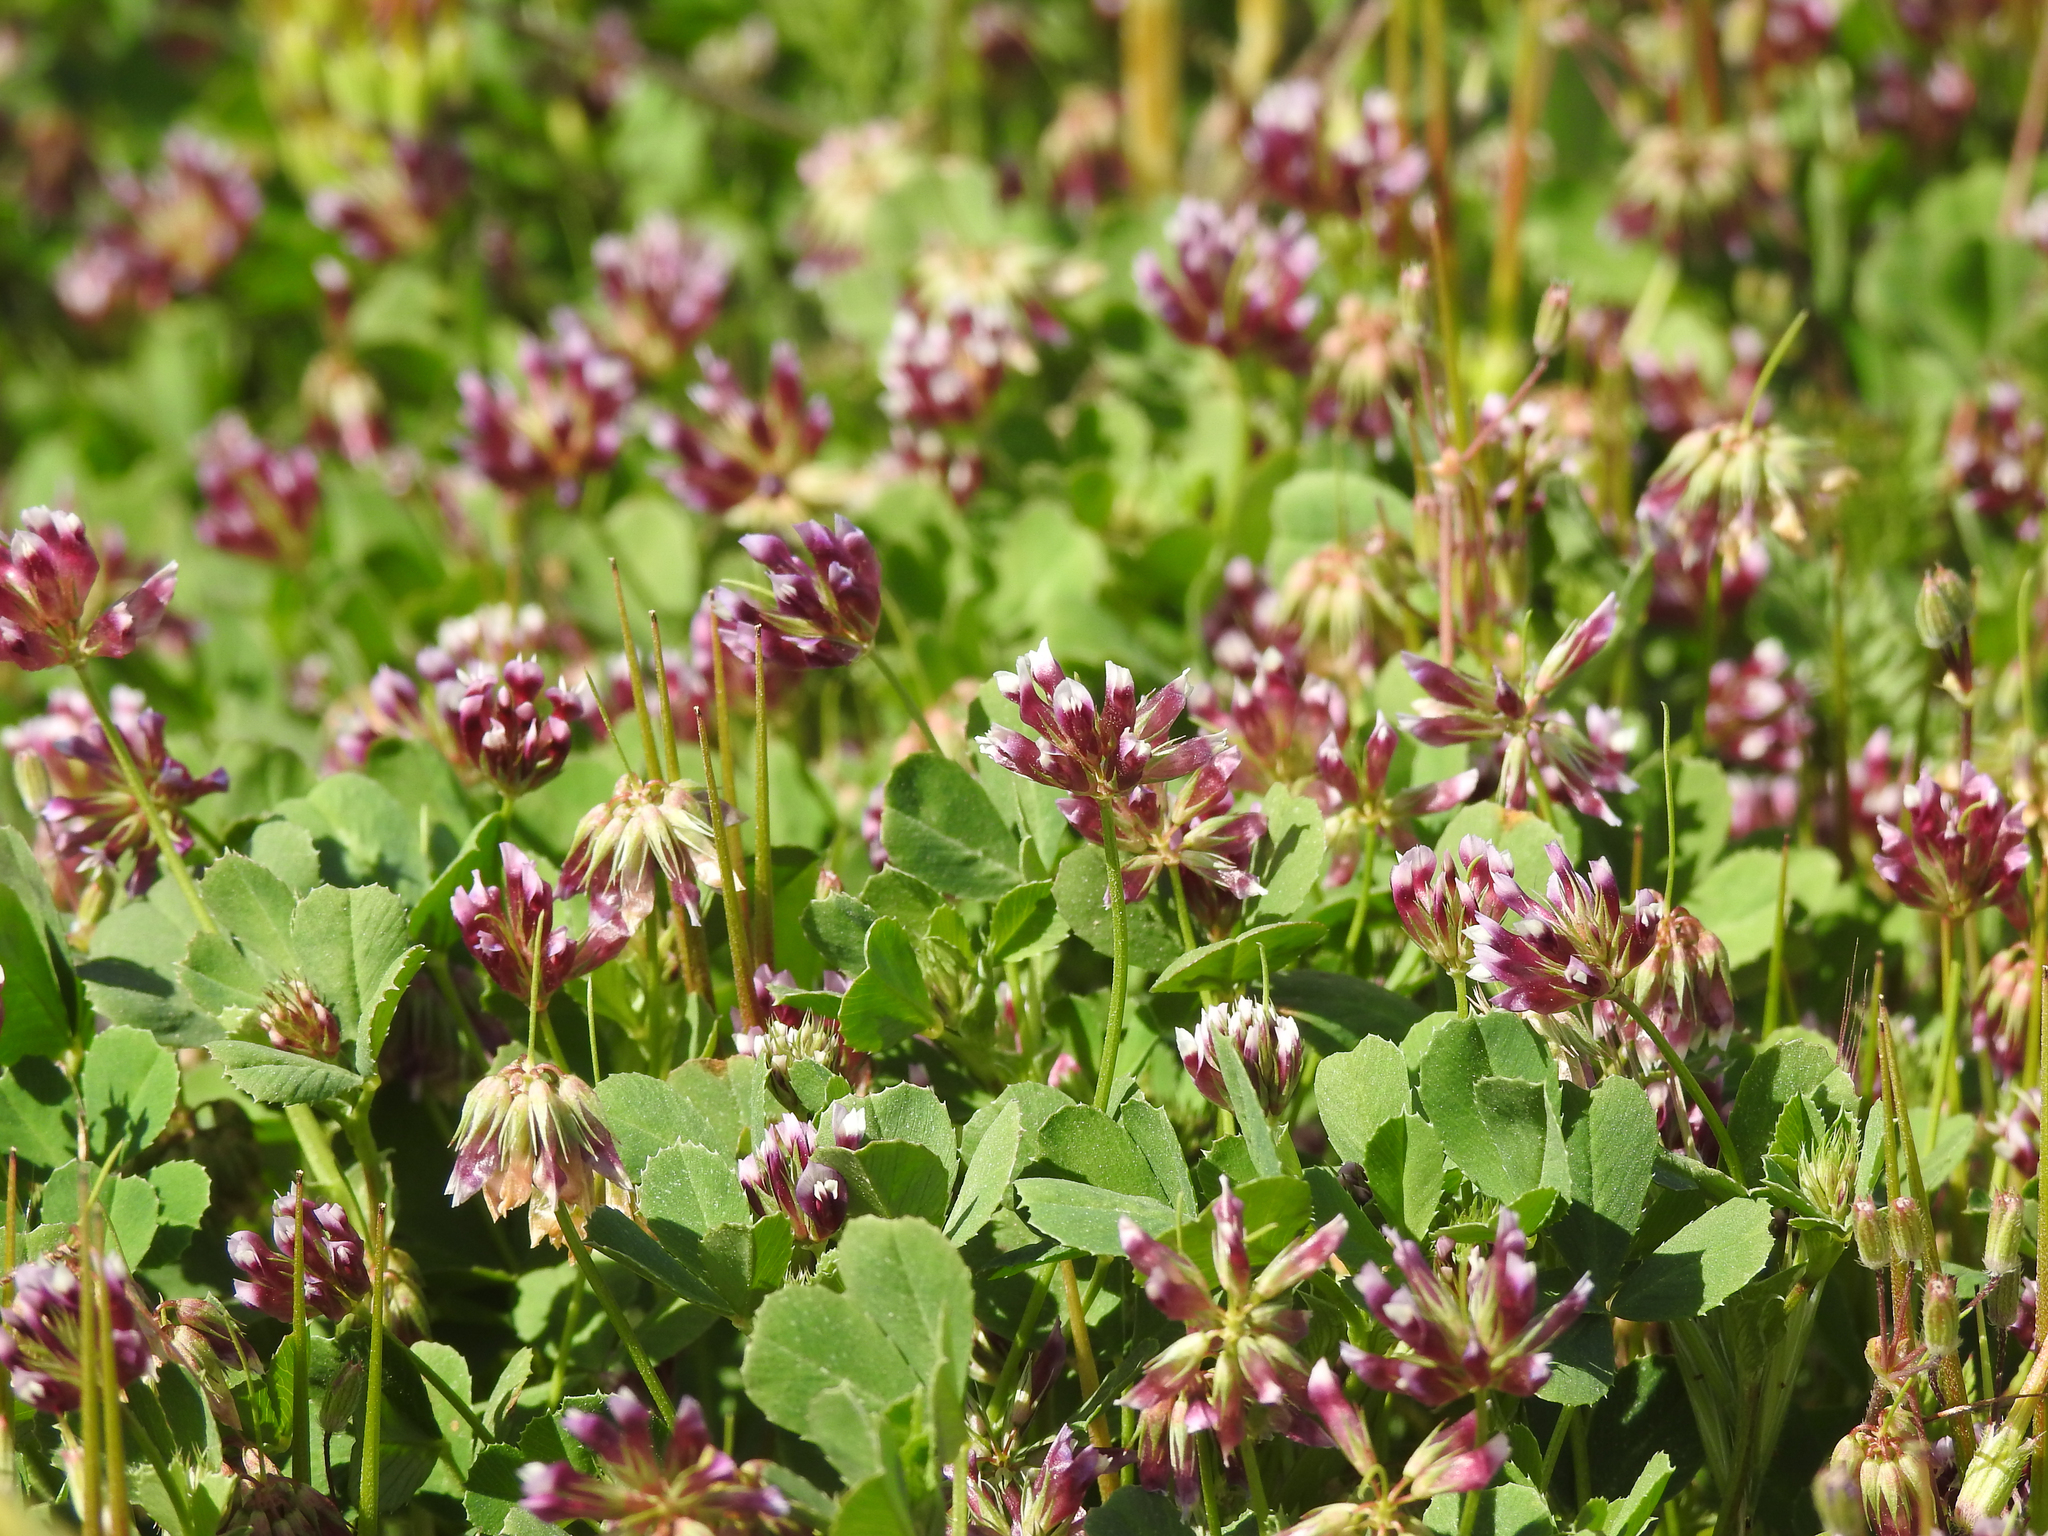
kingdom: Plantae
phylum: Tracheophyta
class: Magnoliopsida
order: Fabales
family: Fabaceae
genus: Trifolium
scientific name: Trifolium gracilentum
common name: Slender clover
